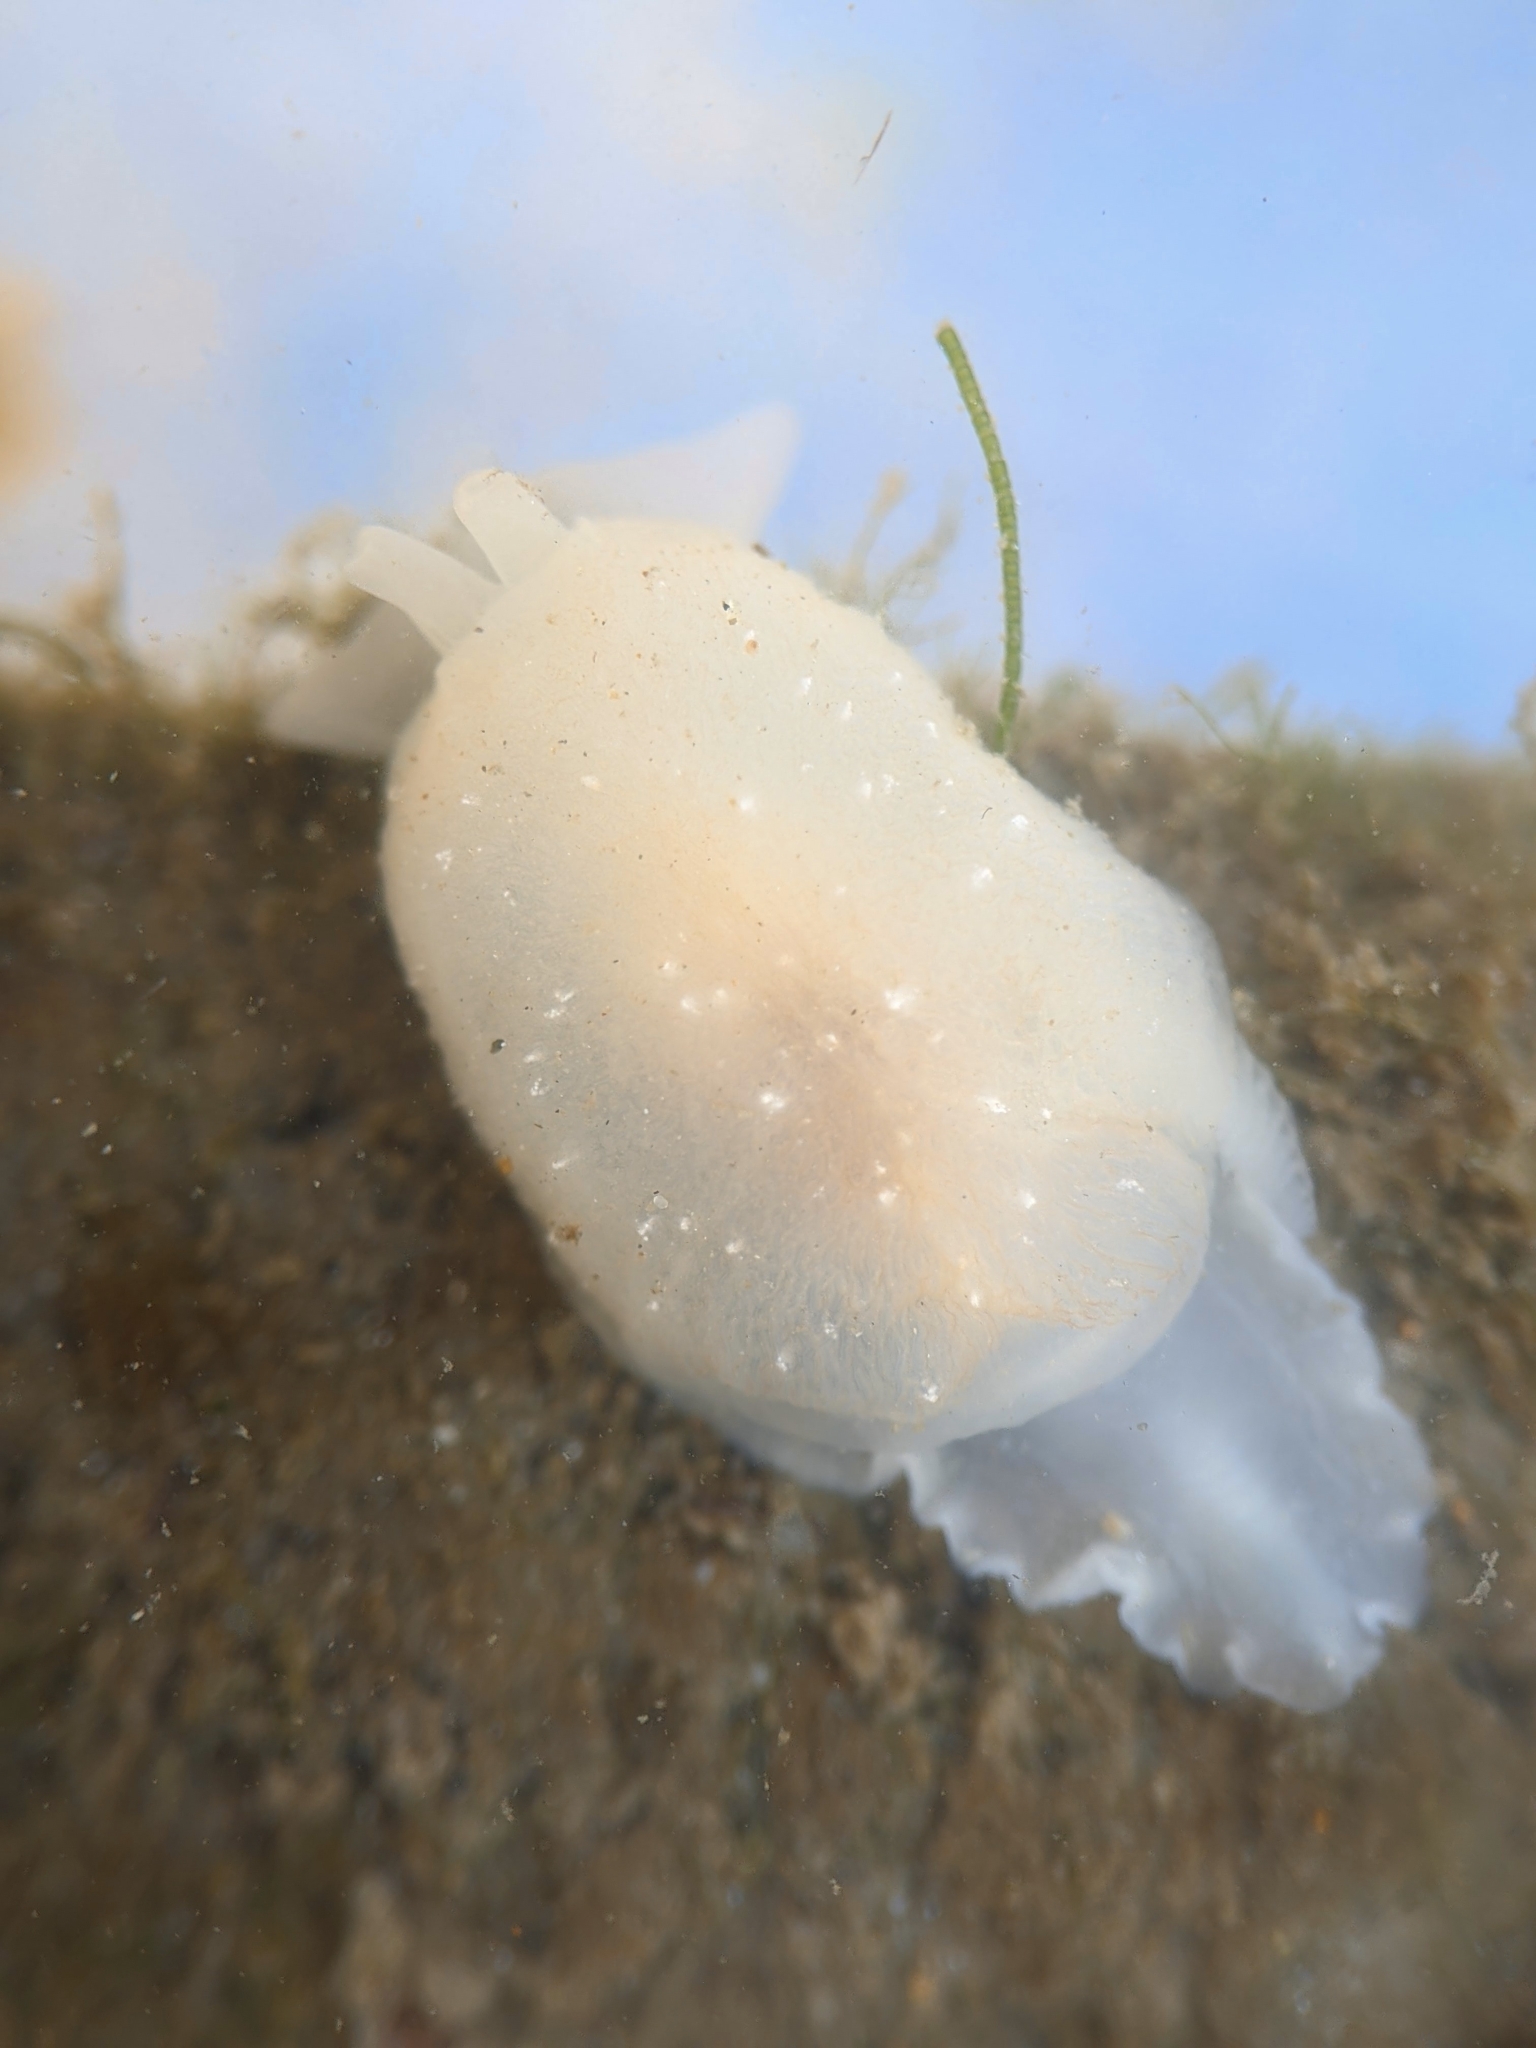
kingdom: Animalia
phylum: Mollusca
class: Gastropoda
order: Pleurobranchida
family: Pleurobranchidae
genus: Pleurehdera
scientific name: Pleurehdera
